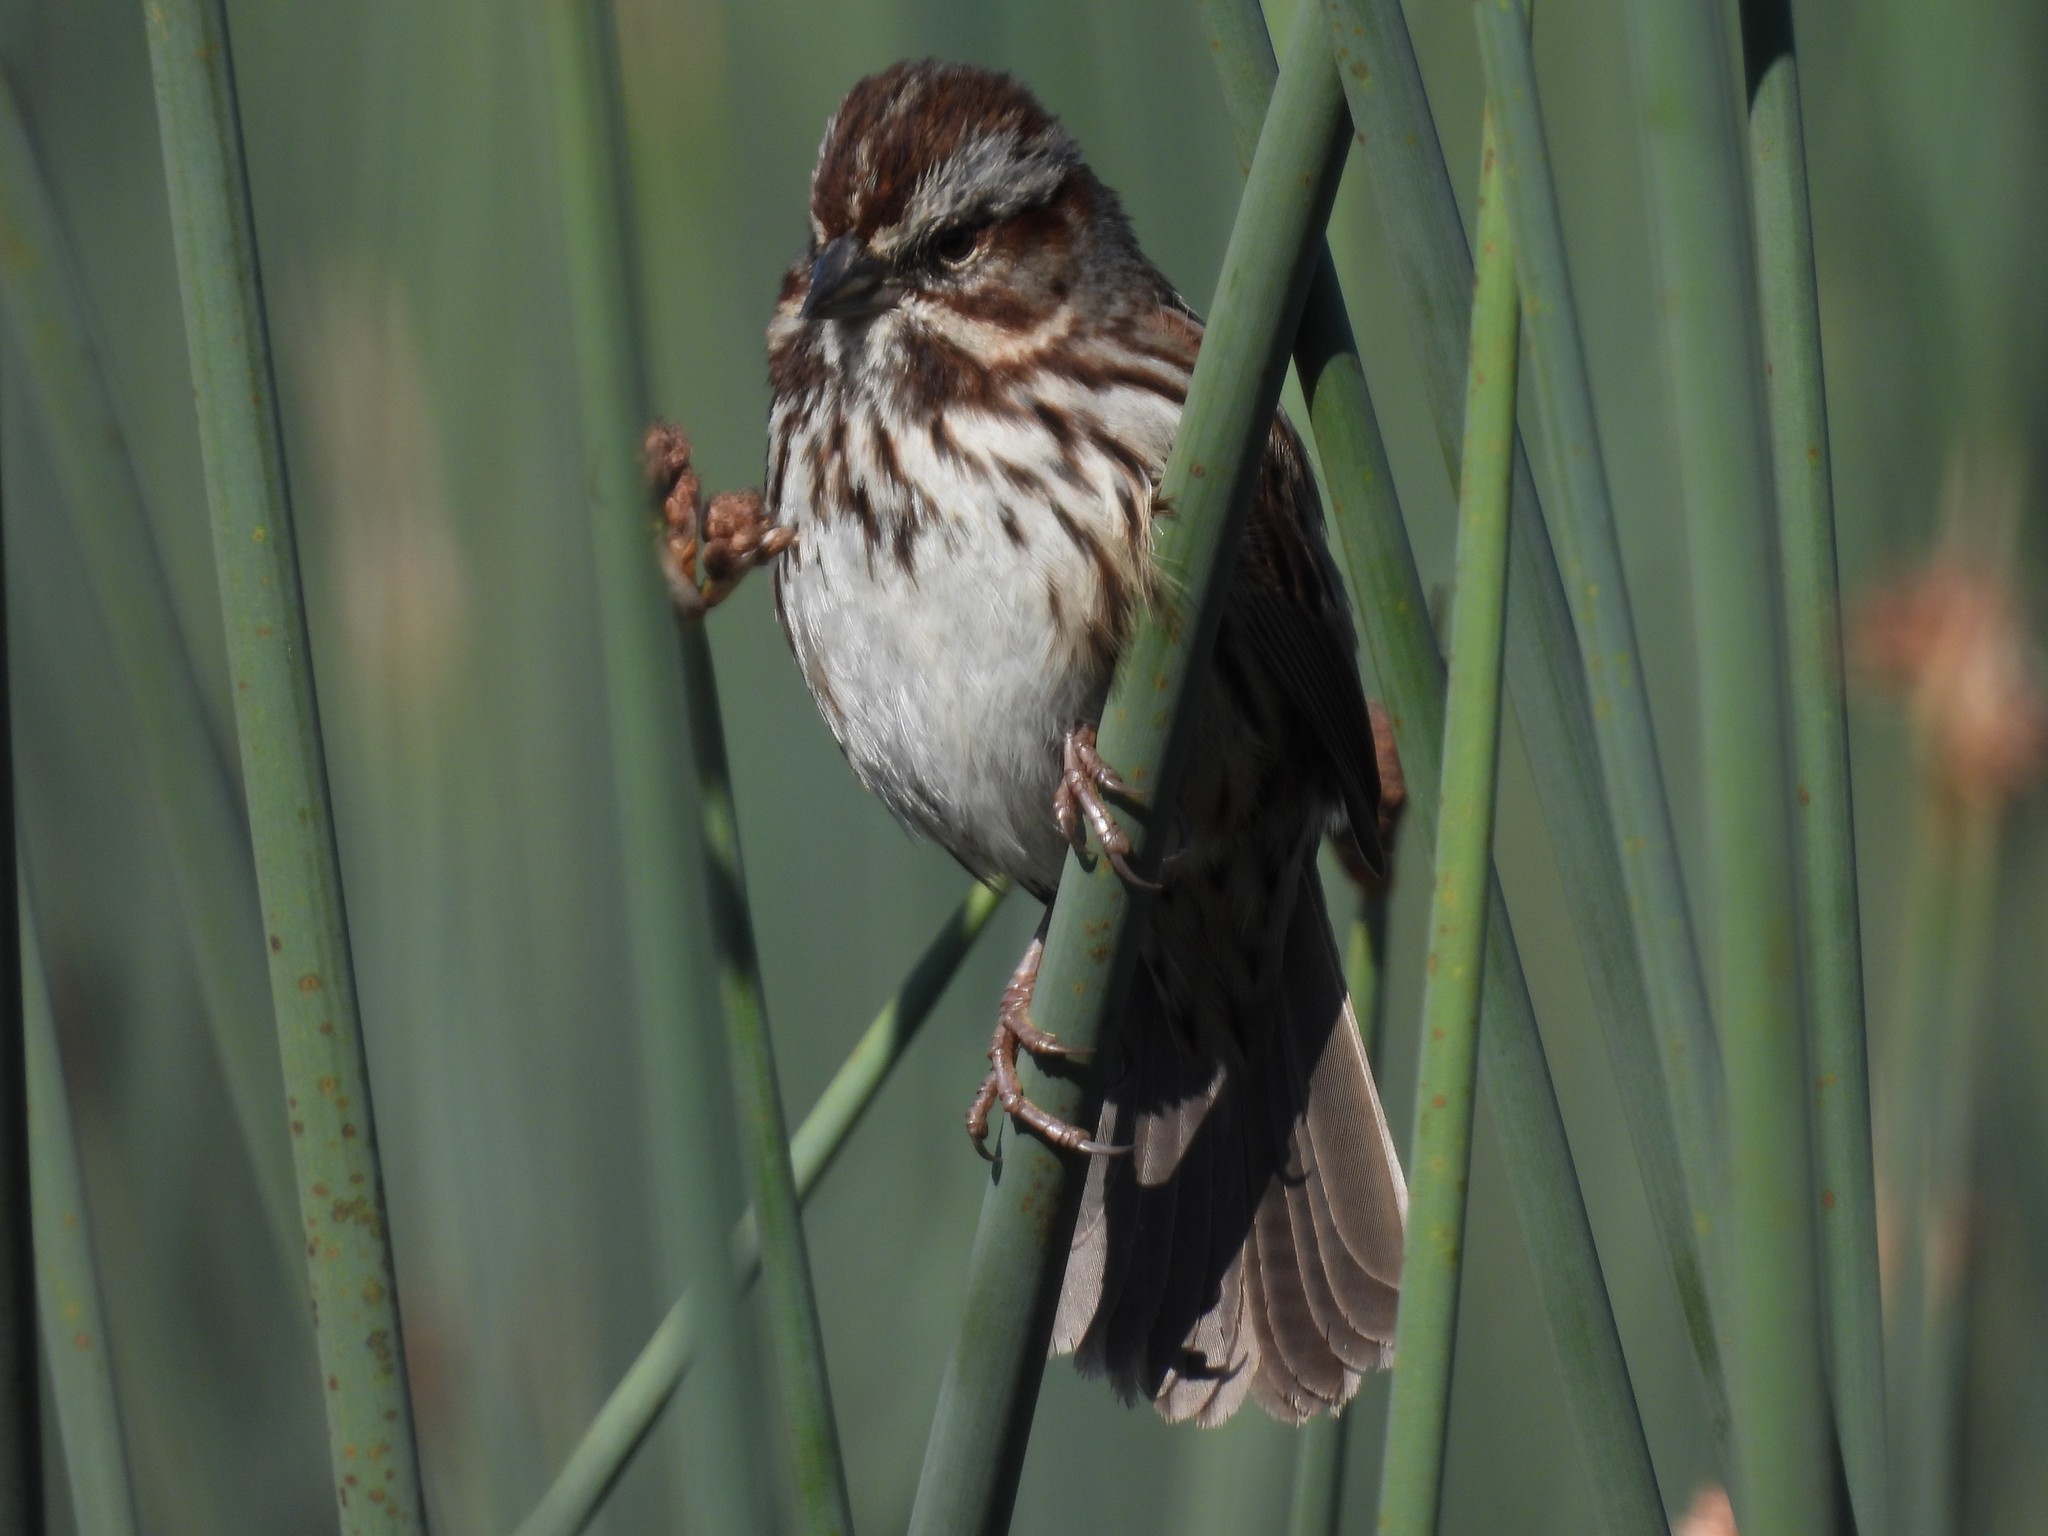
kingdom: Animalia
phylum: Chordata
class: Aves
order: Passeriformes
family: Passerellidae
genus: Melospiza
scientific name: Melospiza melodia
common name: Song sparrow
